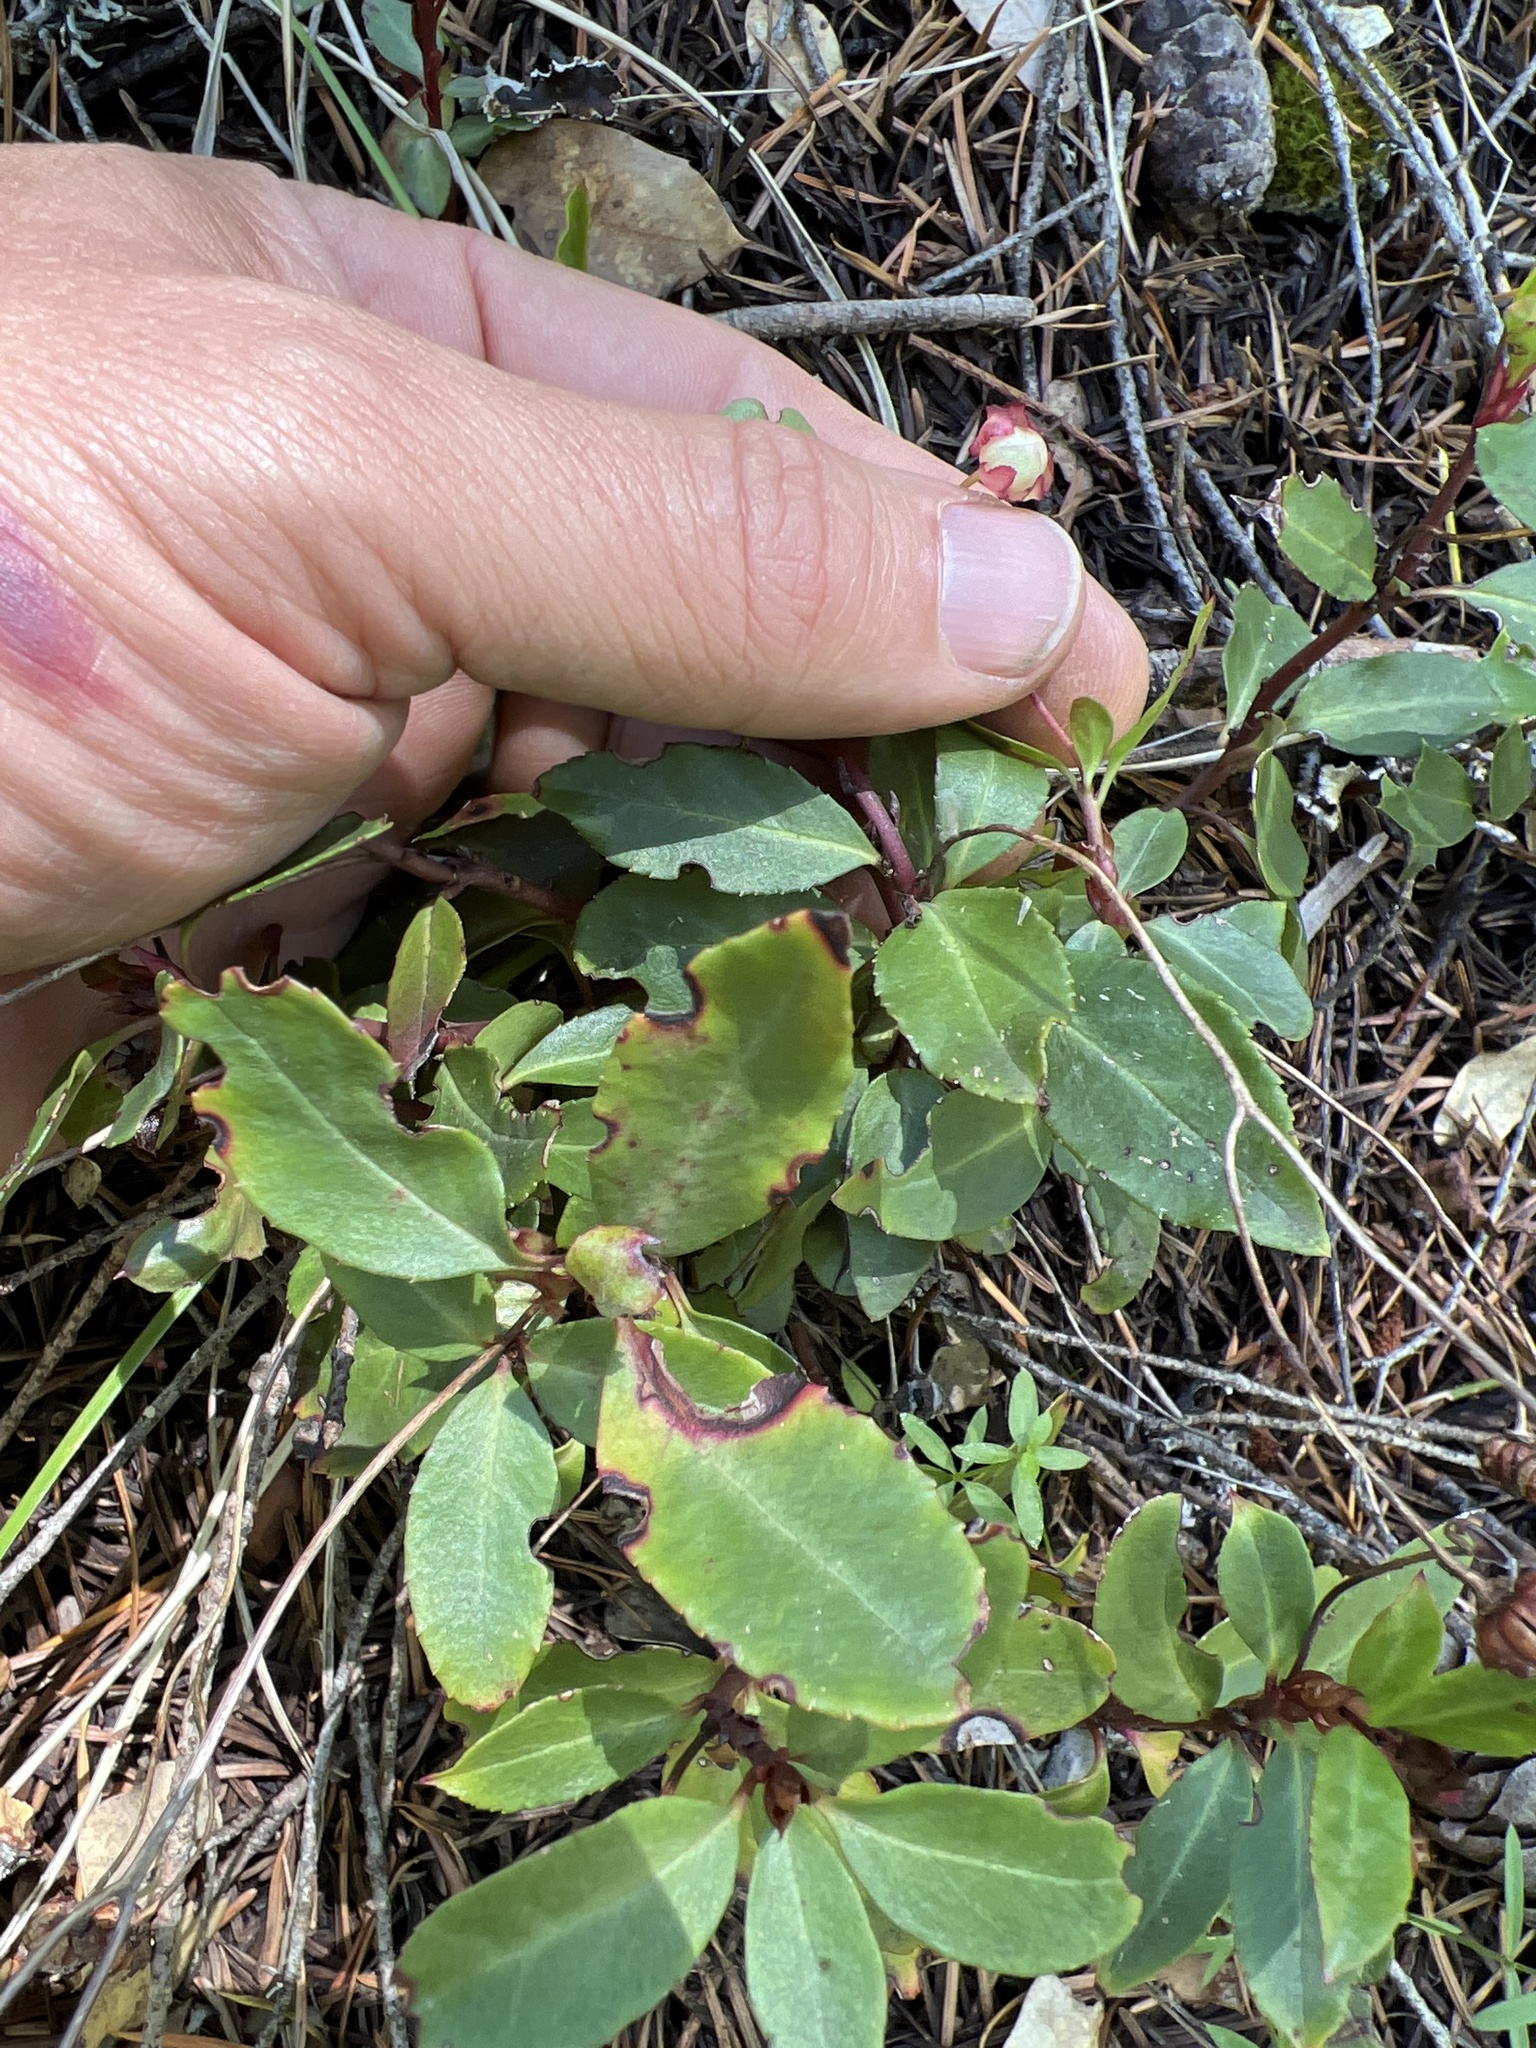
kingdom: Plantae
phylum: Tracheophyta
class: Magnoliopsida
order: Ericales
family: Ericaceae
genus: Chimaphila
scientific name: Chimaphila menziesii
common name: Menzies' pipsissewa
